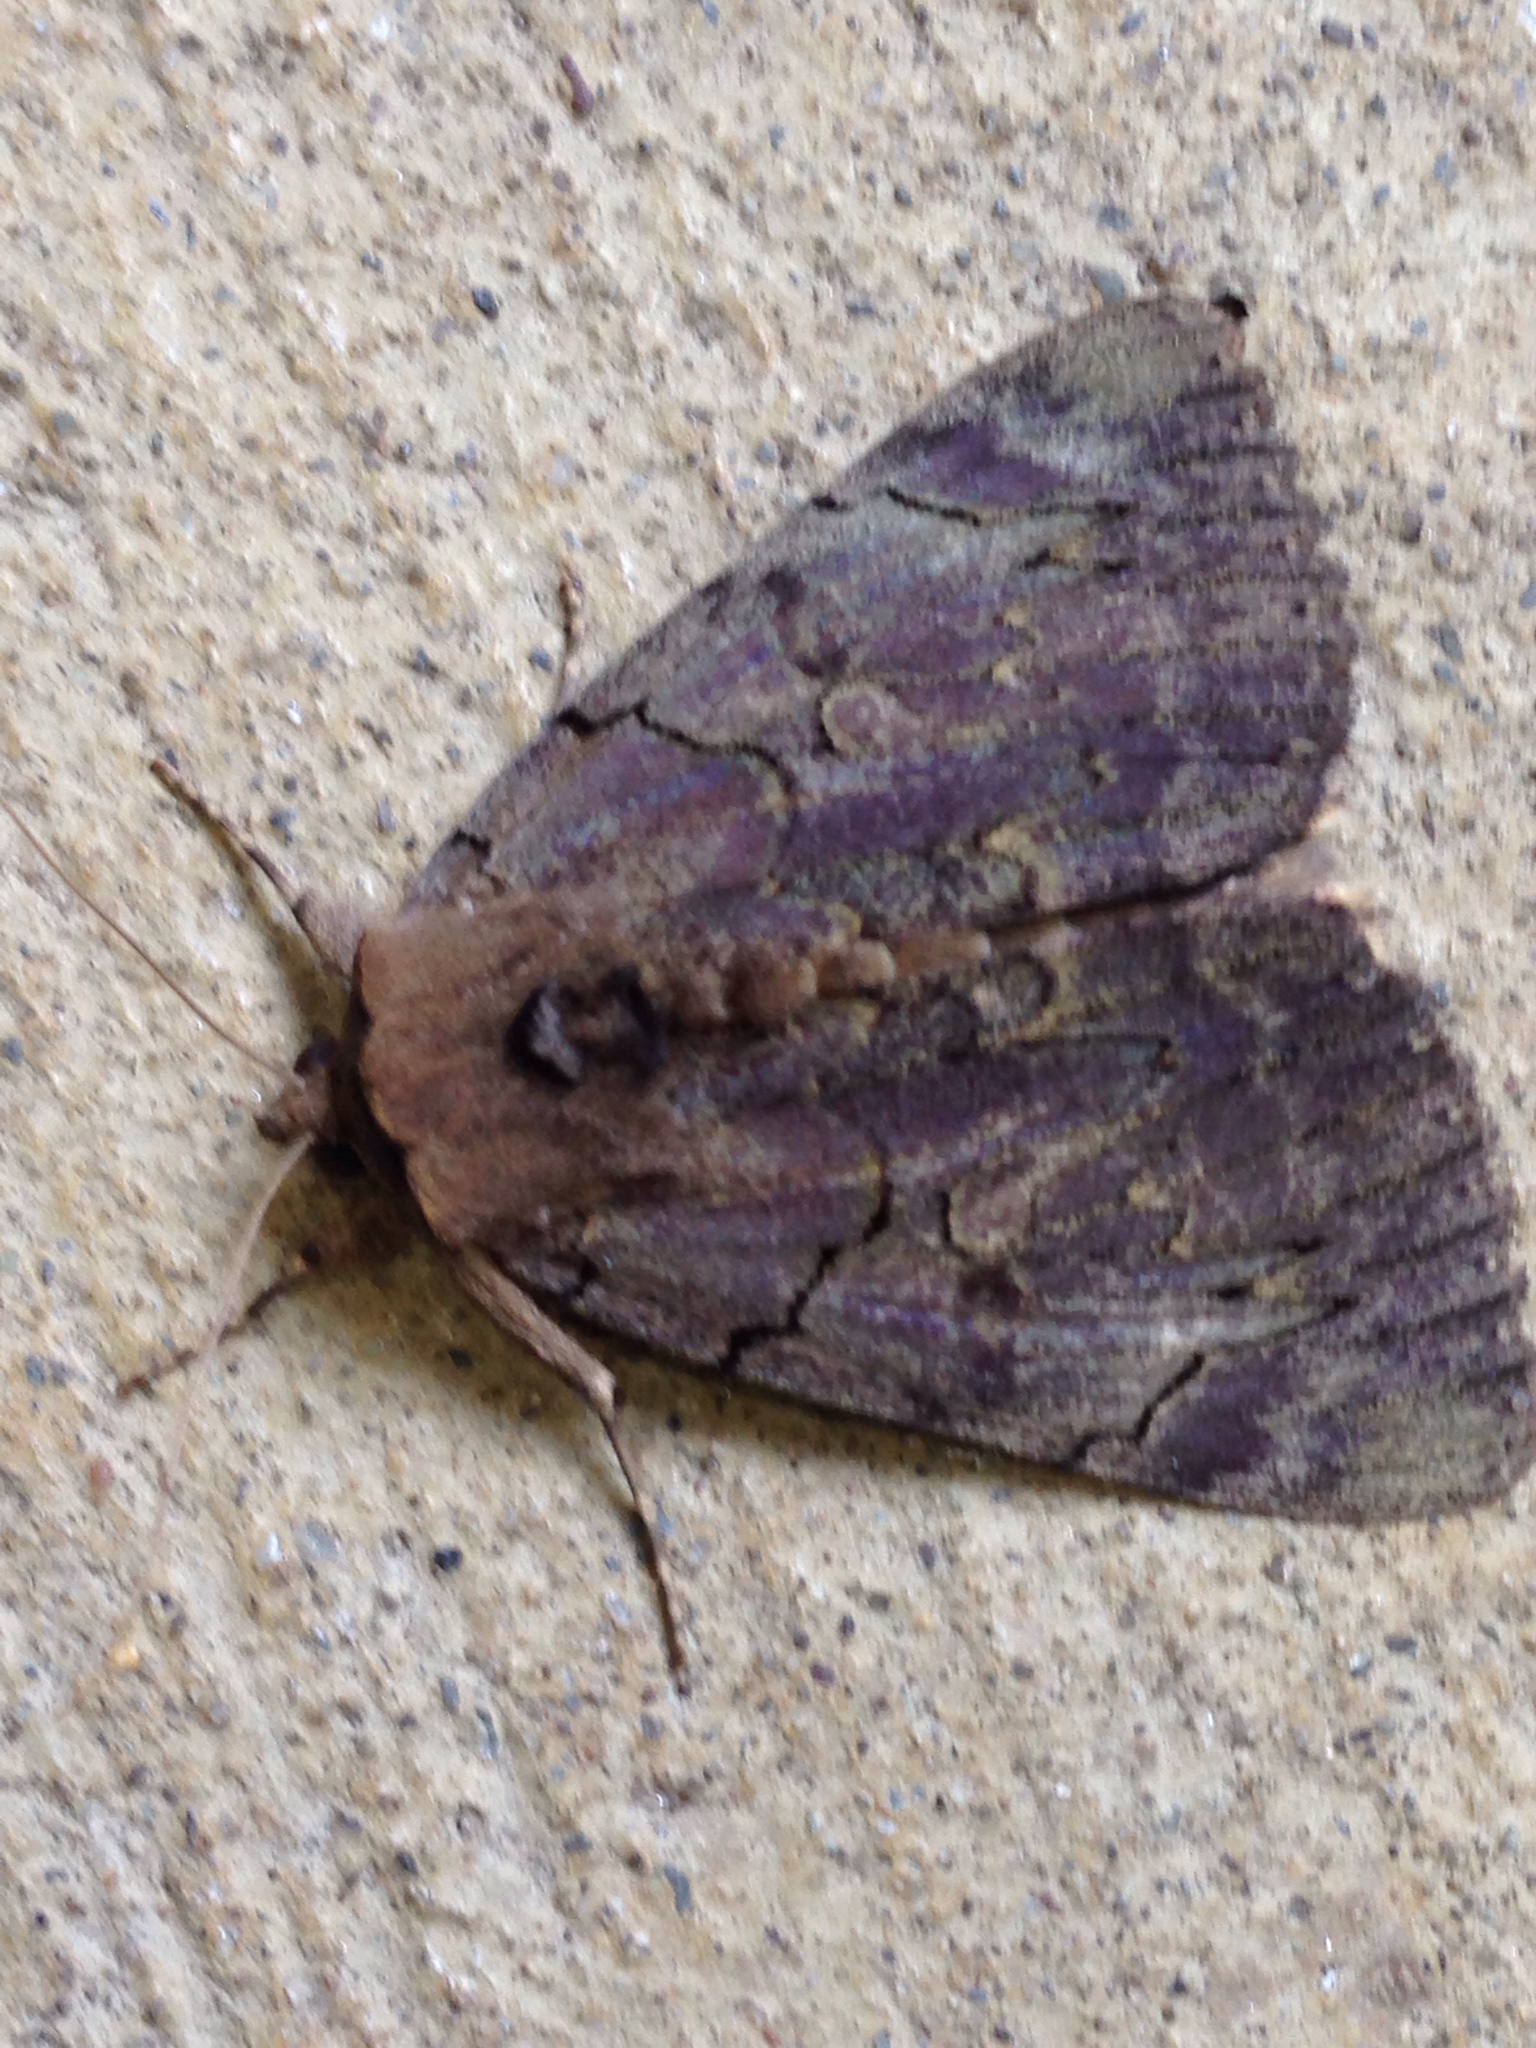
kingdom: Animalia
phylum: Arthropoda
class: Insecta
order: Lepidoptera
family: Erebidae
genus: Catocala
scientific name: Catocala cara
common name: Darling underwing
